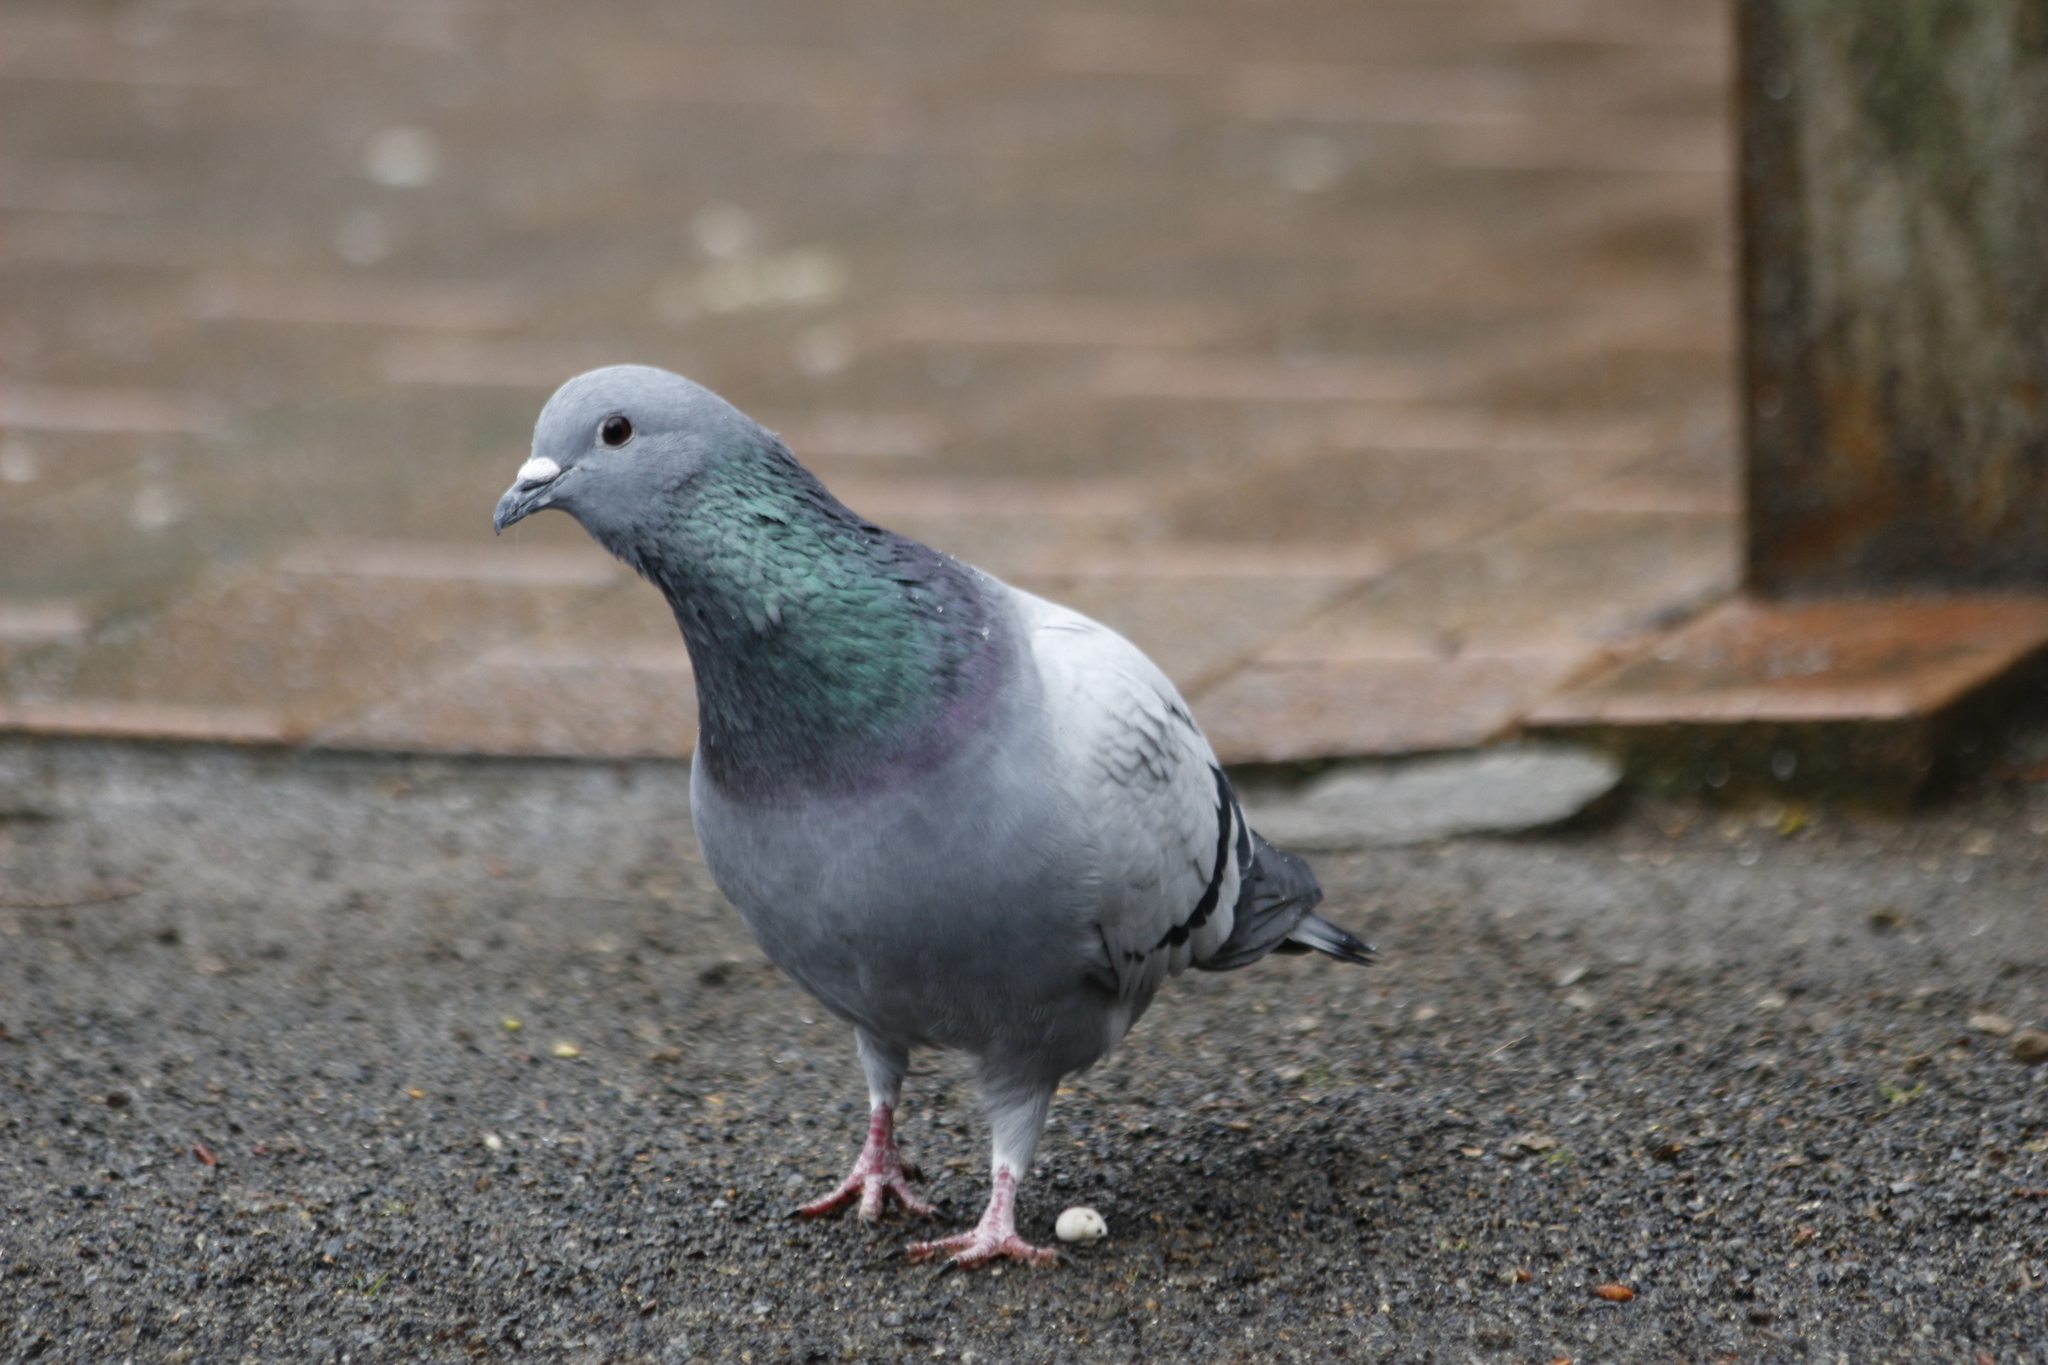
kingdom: Animalia
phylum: Chordata
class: Aves
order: Columbiformes
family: Columbidae
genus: Columba
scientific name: Columba livia
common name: Rock pigeon
